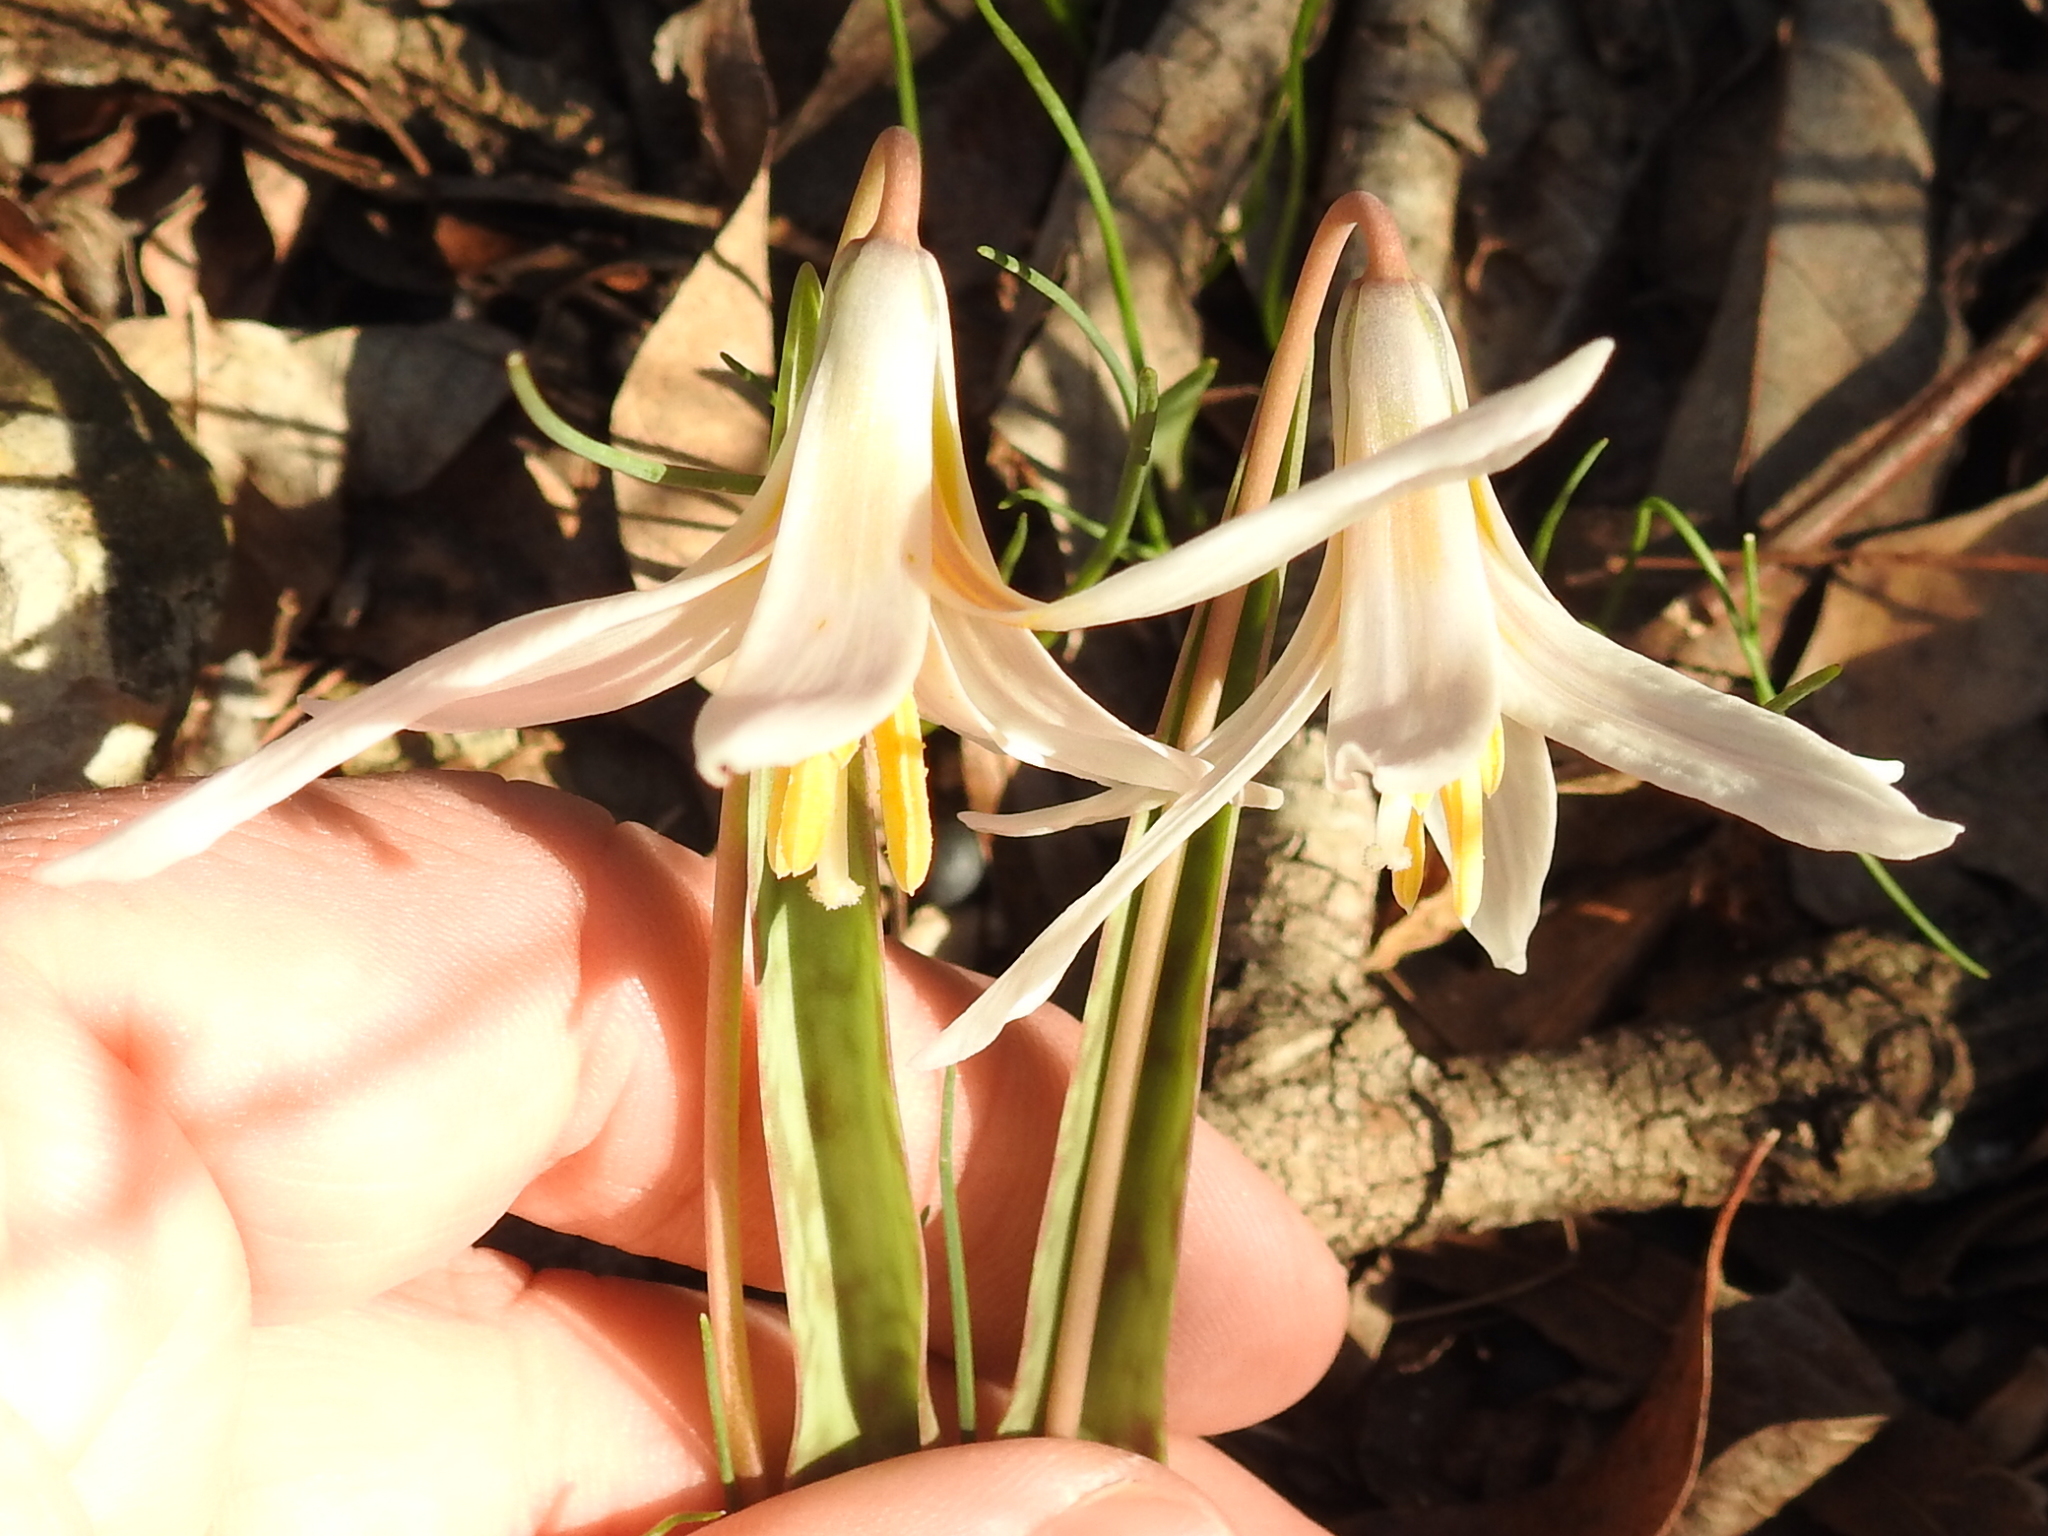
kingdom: Plantae
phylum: Tracheophyta
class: Liliopsida
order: Liliales
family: Liliaceae
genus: Erythronium
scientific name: Erythronium albidum
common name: White trout-lily
